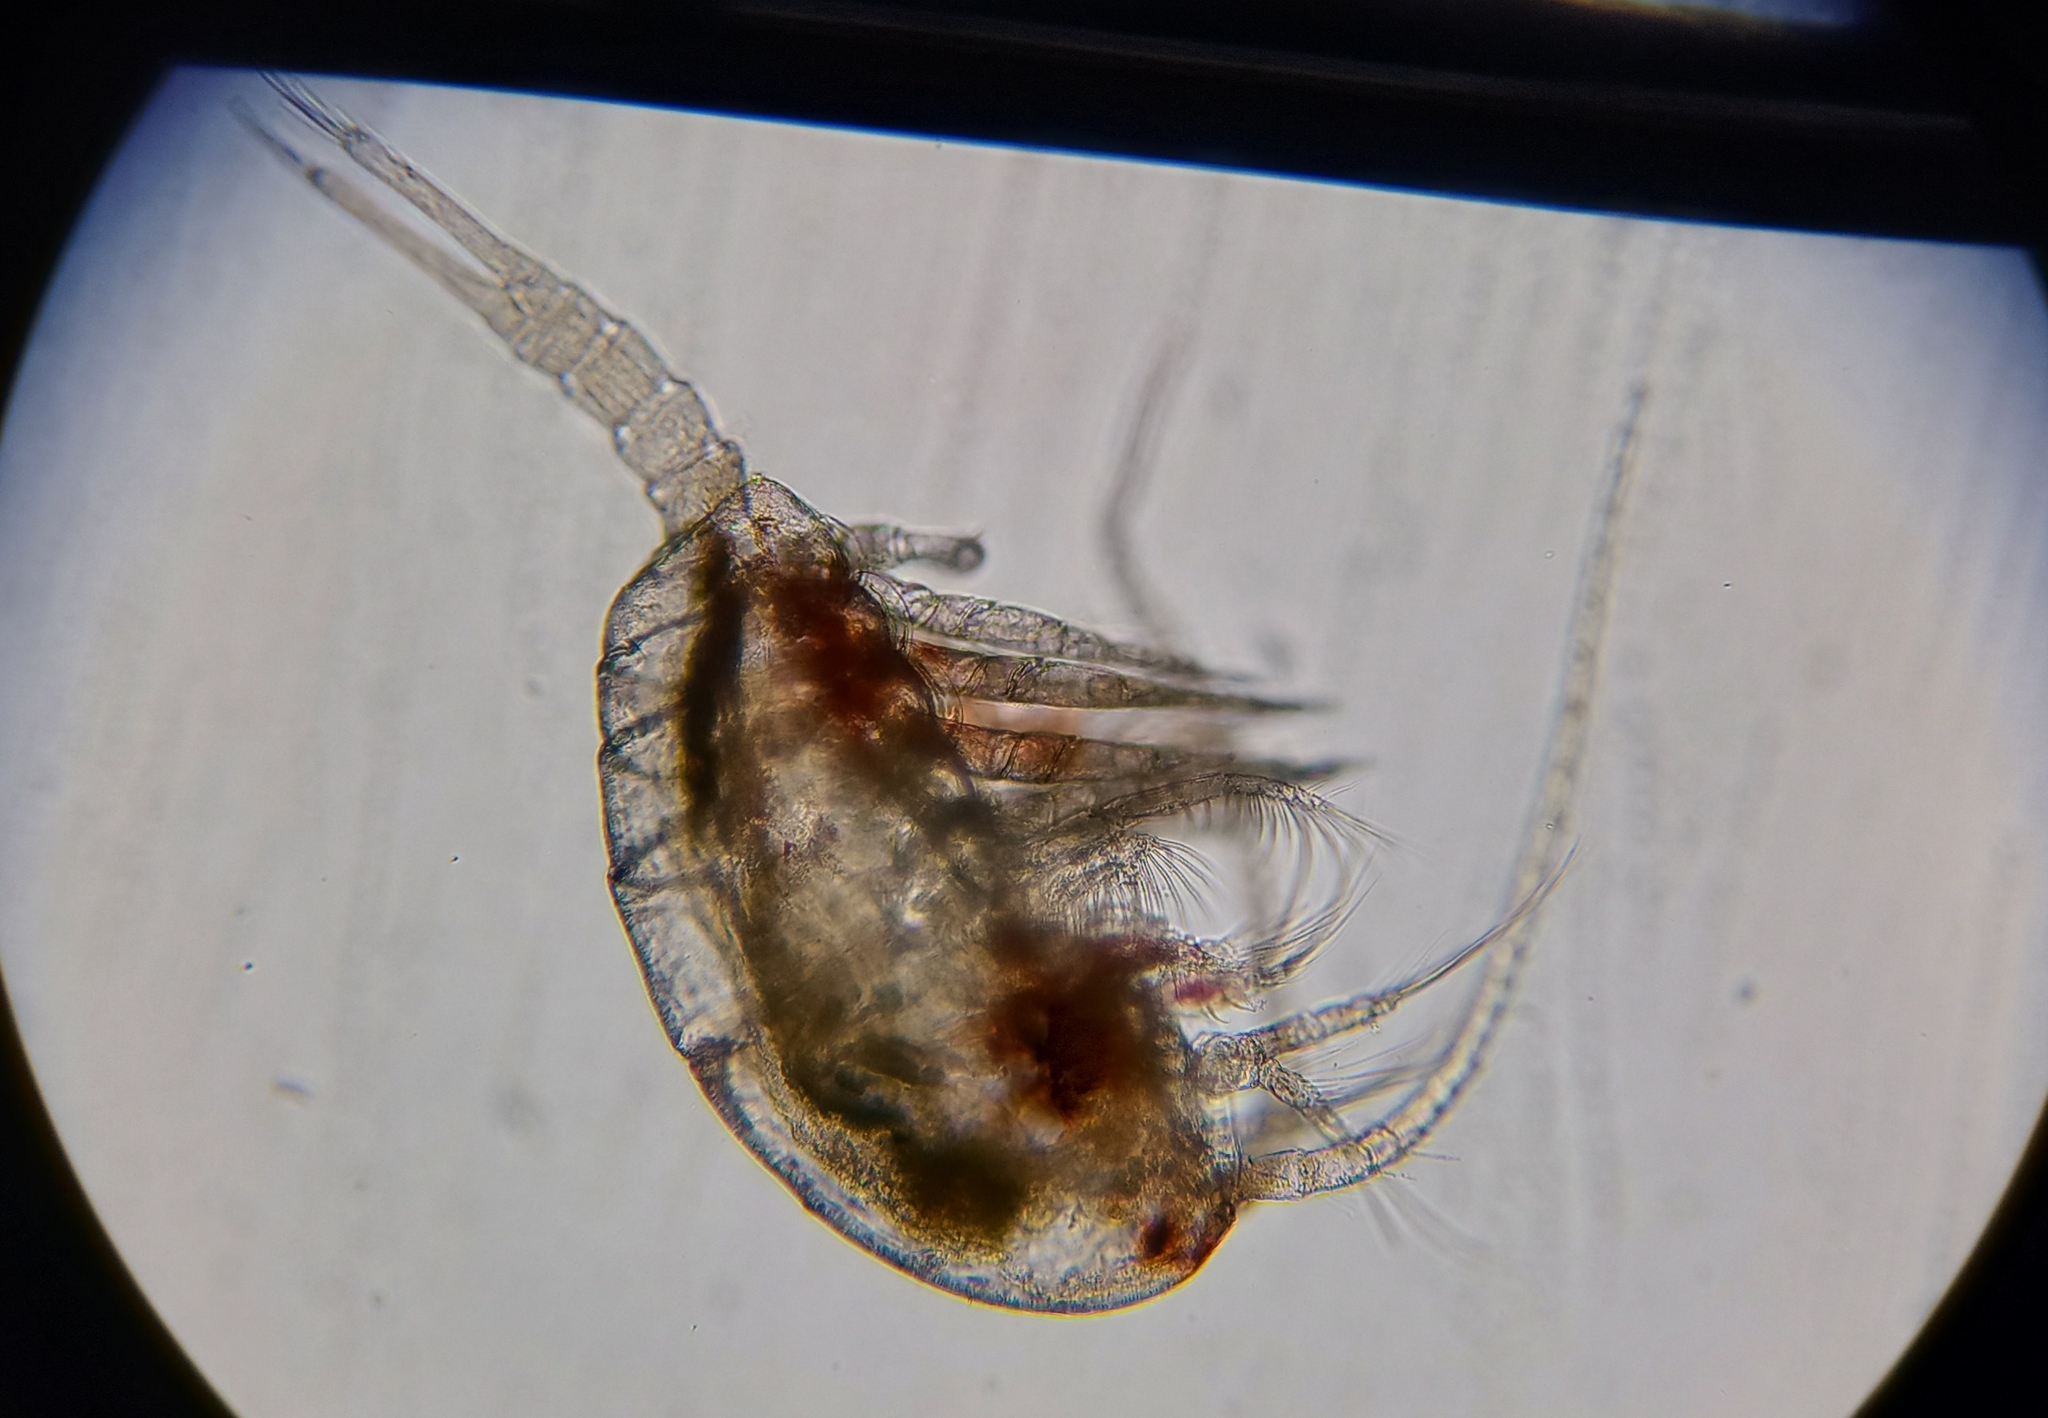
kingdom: Animalia
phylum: Arthropoda
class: Copepoda
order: Calanoida
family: Temoridae
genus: Temora
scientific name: Temora turbinata
